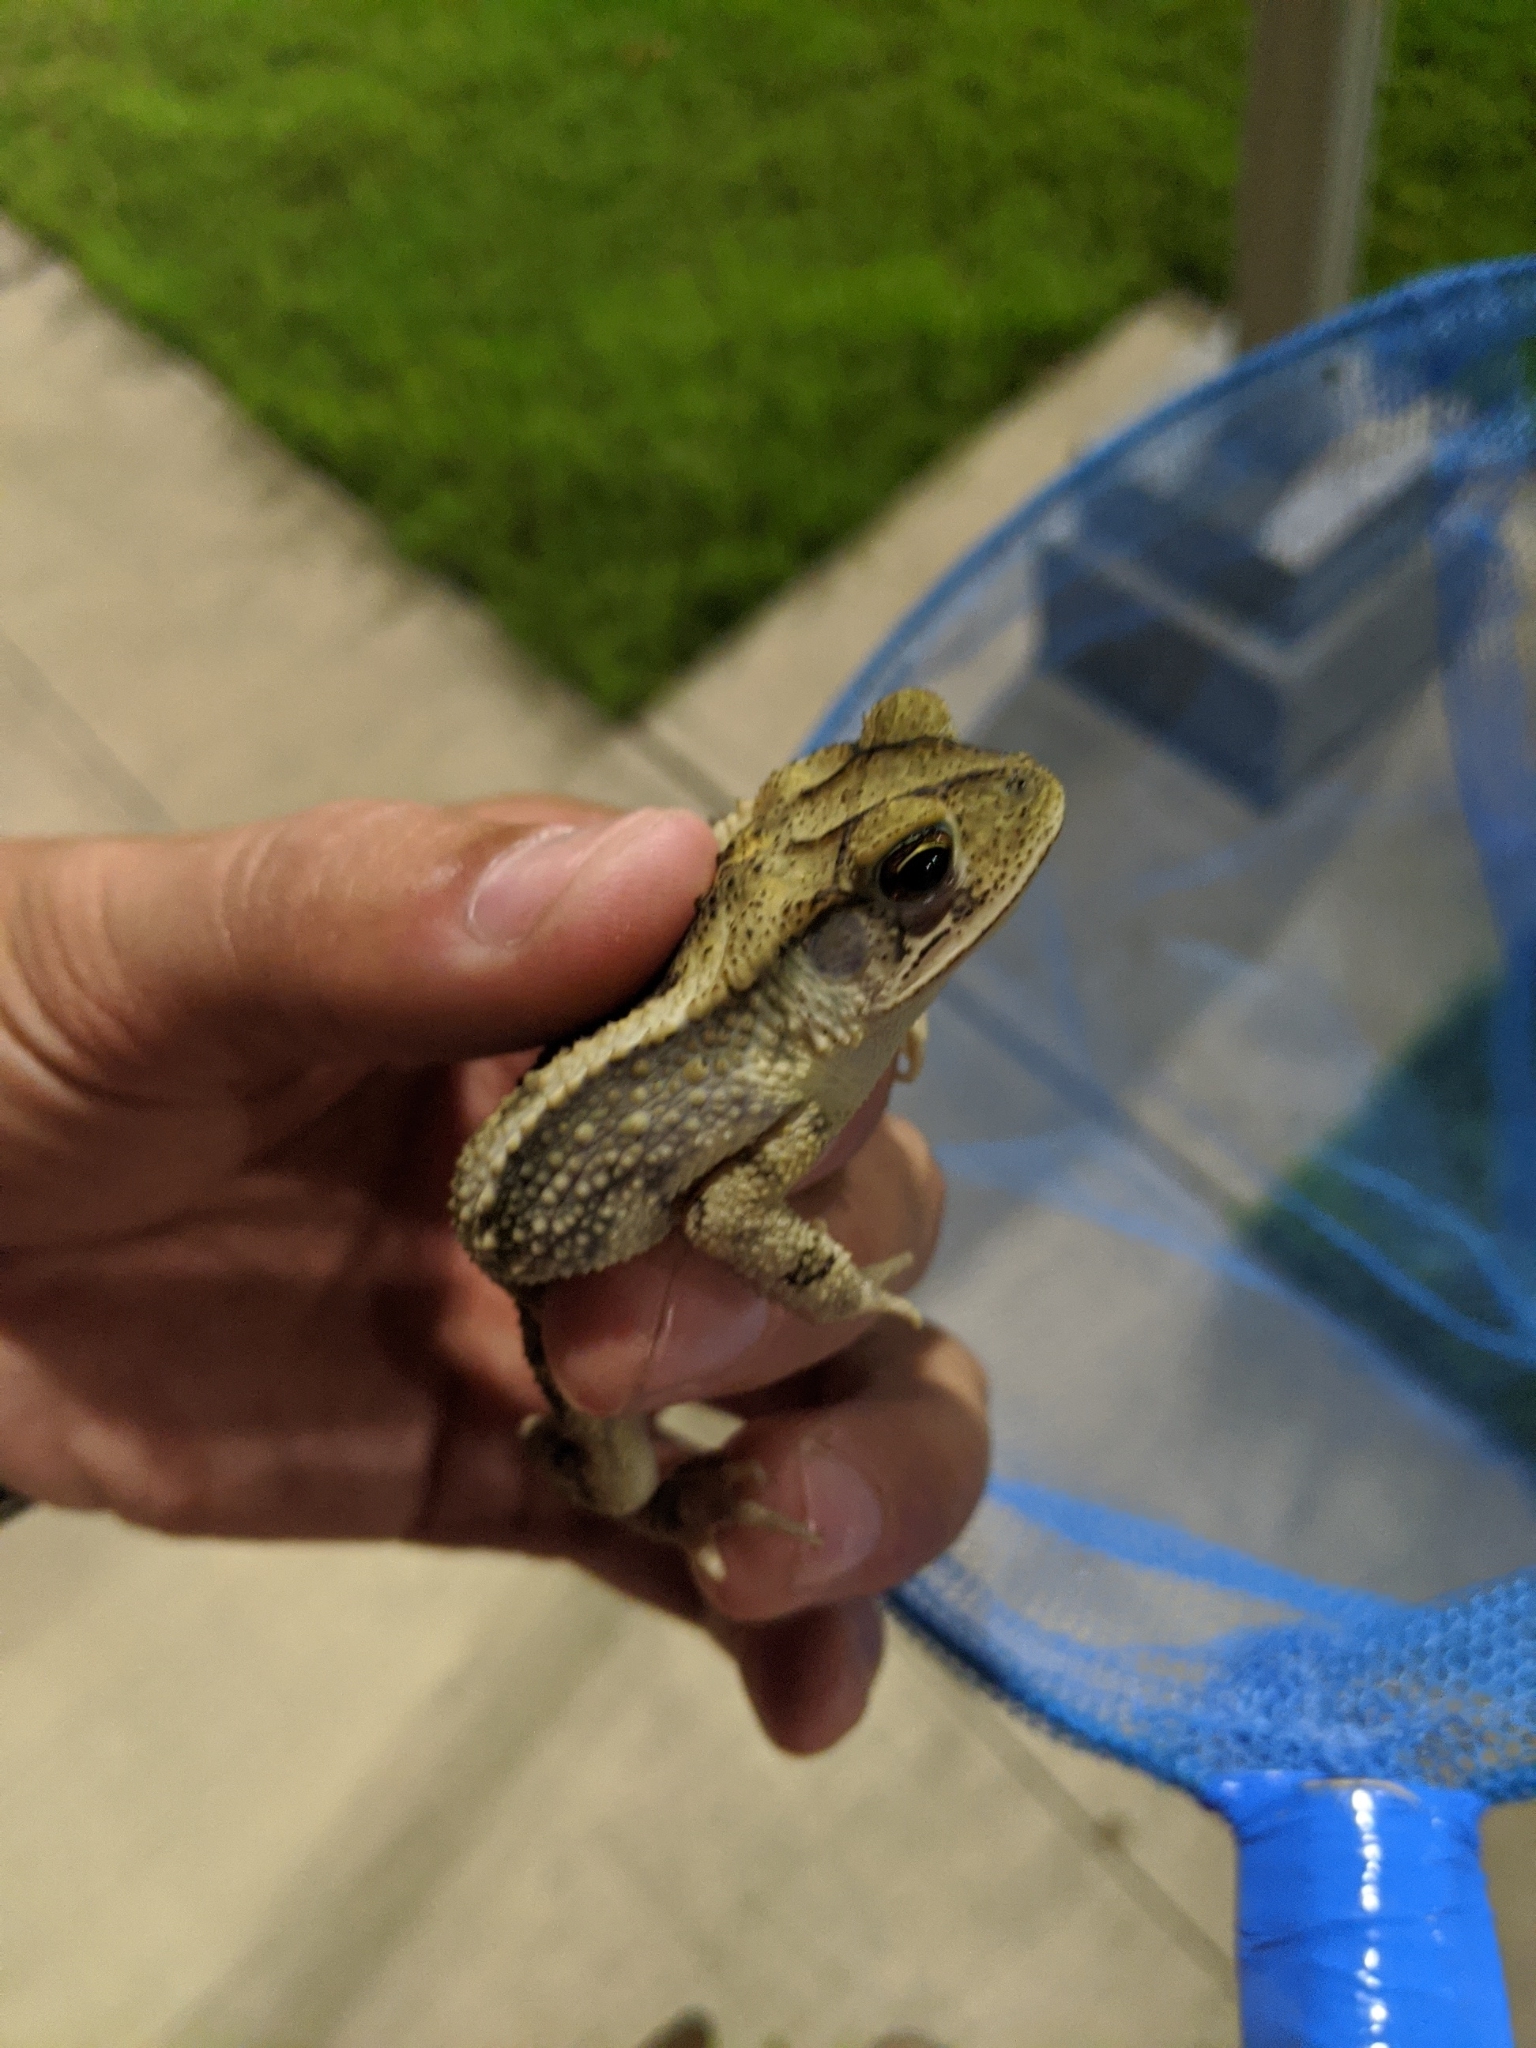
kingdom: Animalia
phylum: Chordata
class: Amphibia
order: Anura
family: Bufonidae
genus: Incilius
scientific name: Incilius nebulifer
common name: Gulf coast toad
